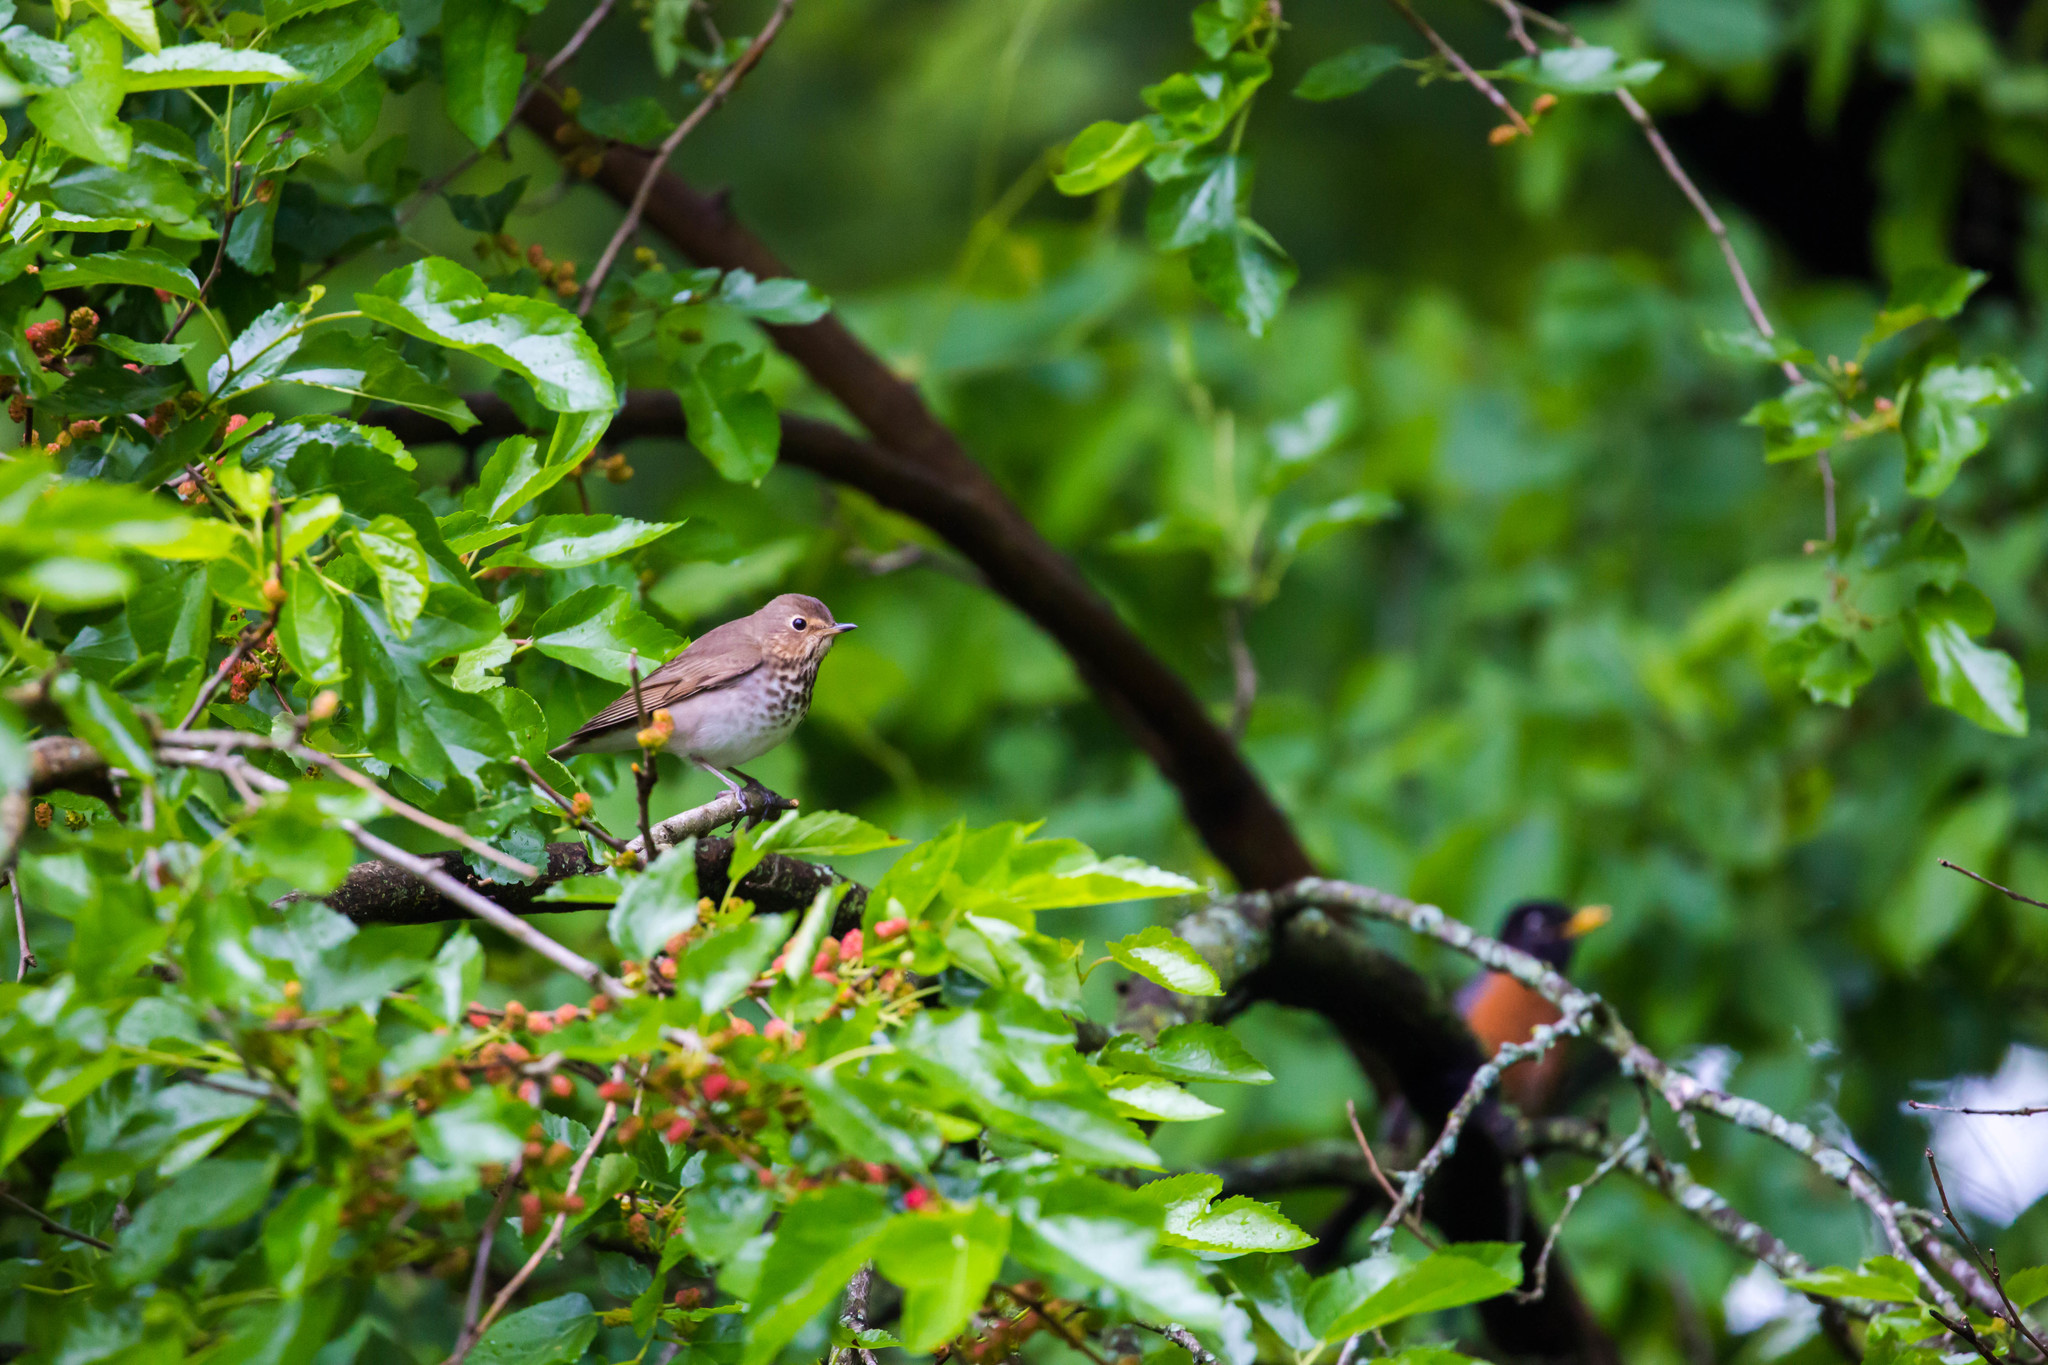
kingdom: Animalia
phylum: Chordata
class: Aves
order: Passeriformes
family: Turdidae
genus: Catharus
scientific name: Catharus ustulatus
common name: Swainson's thrush
